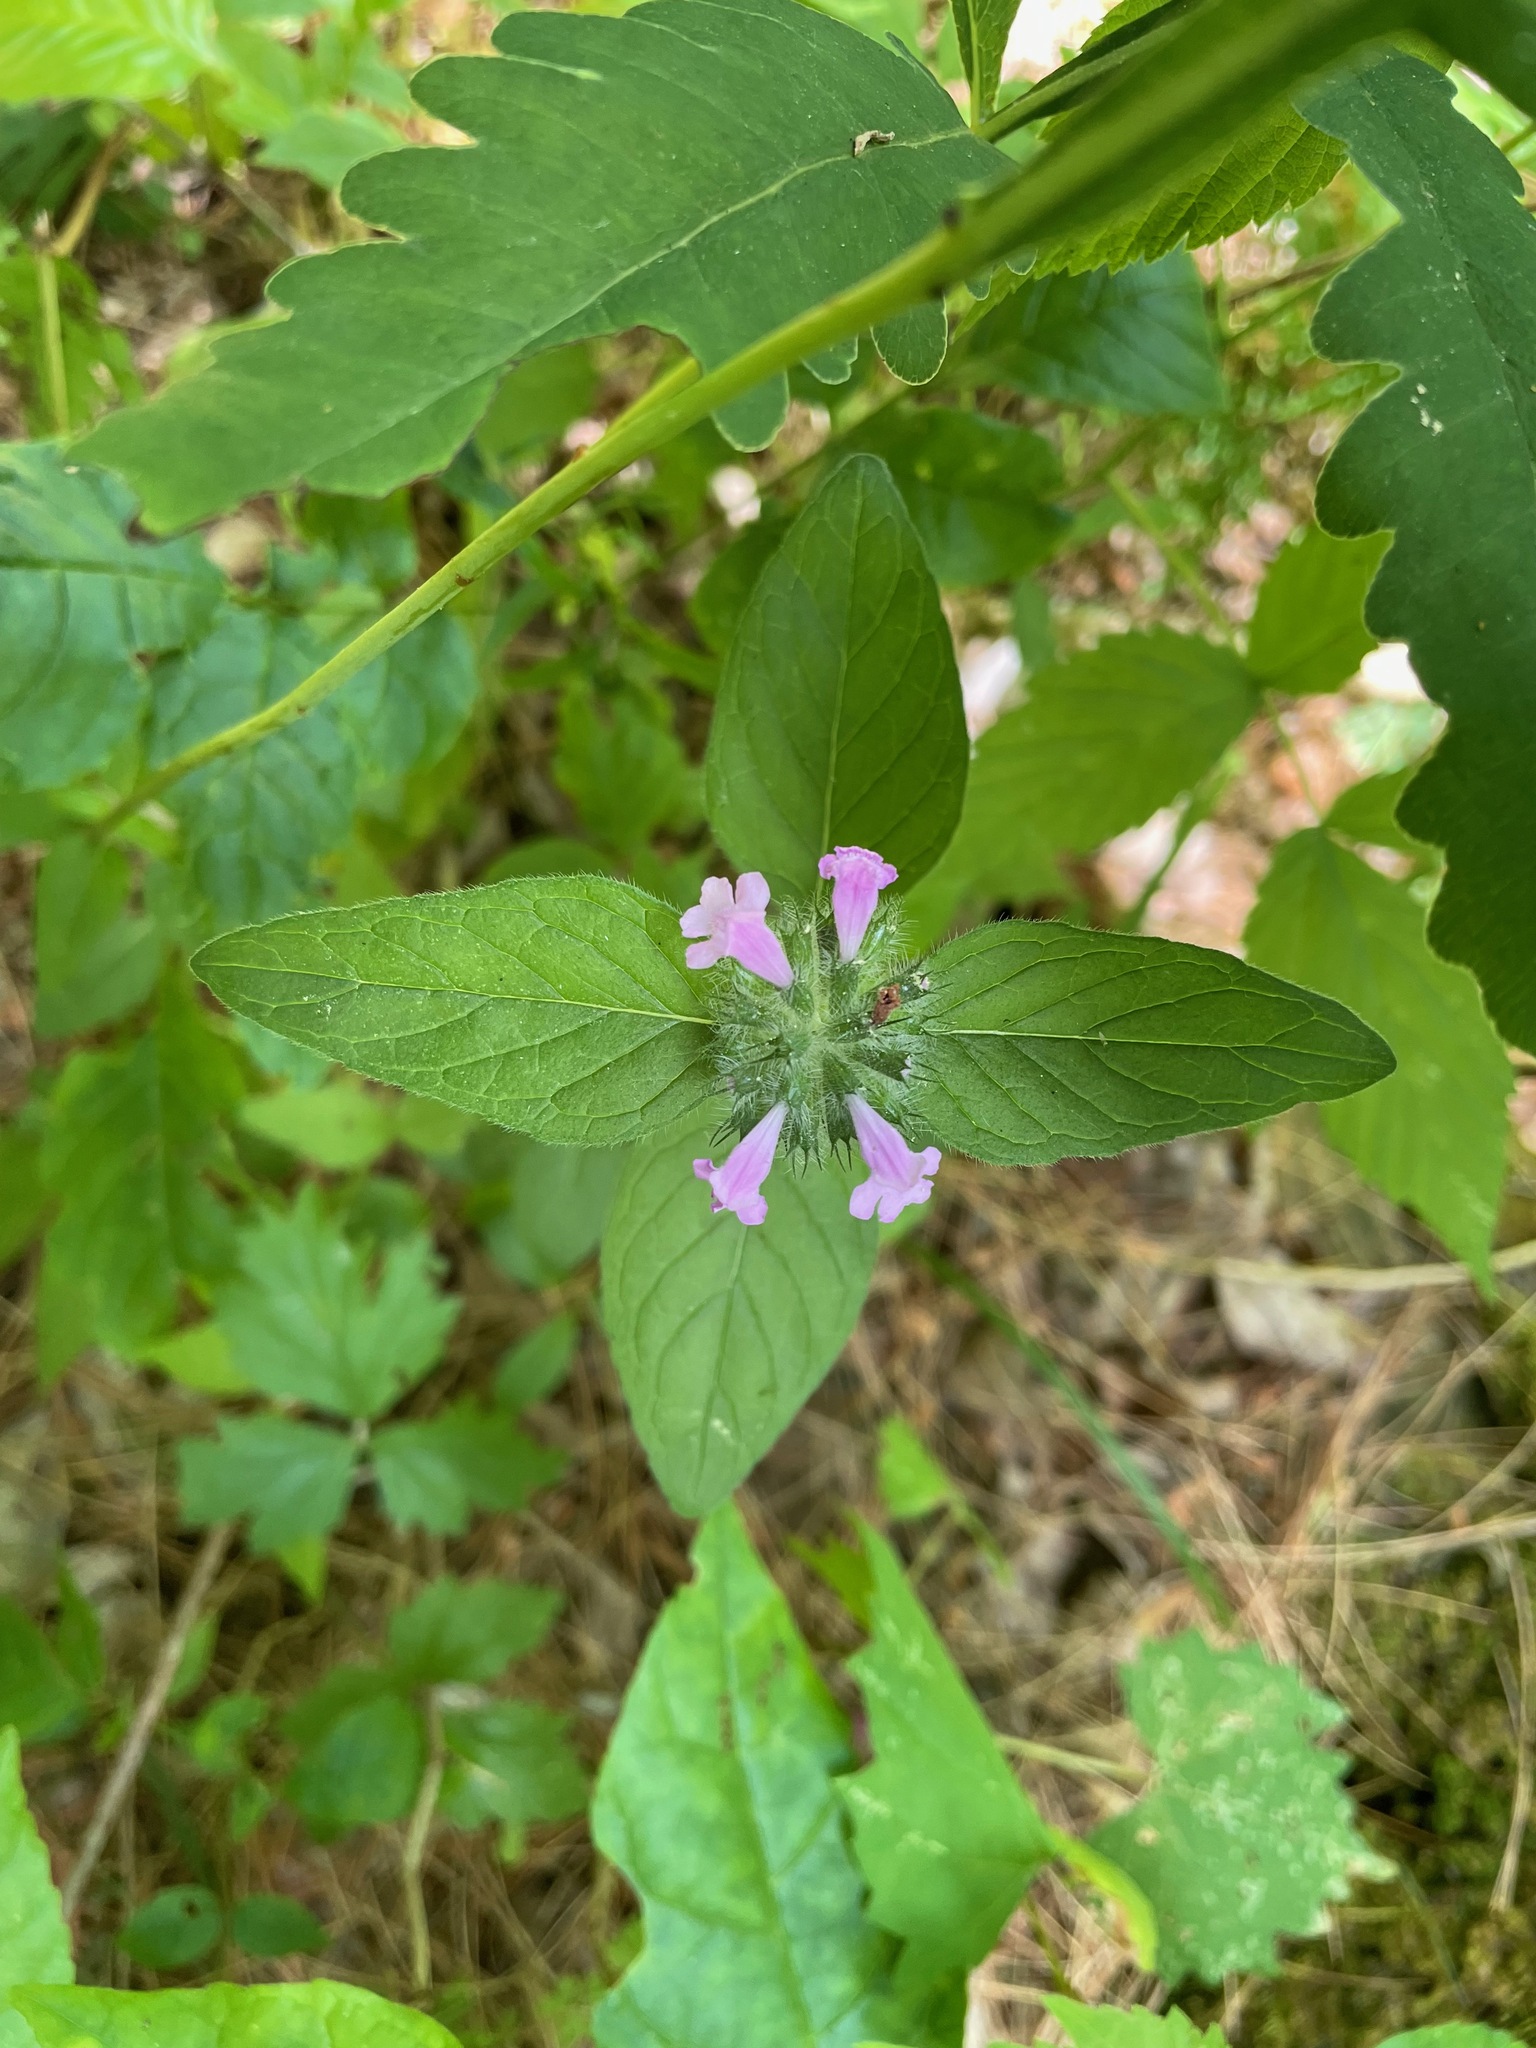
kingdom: Plantae
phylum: Tracheophyta
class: Magnoliopsida
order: Lamiales
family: Lamiaceae
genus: Clinopodium
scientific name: Clinopodium vulgare
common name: Wild basil
